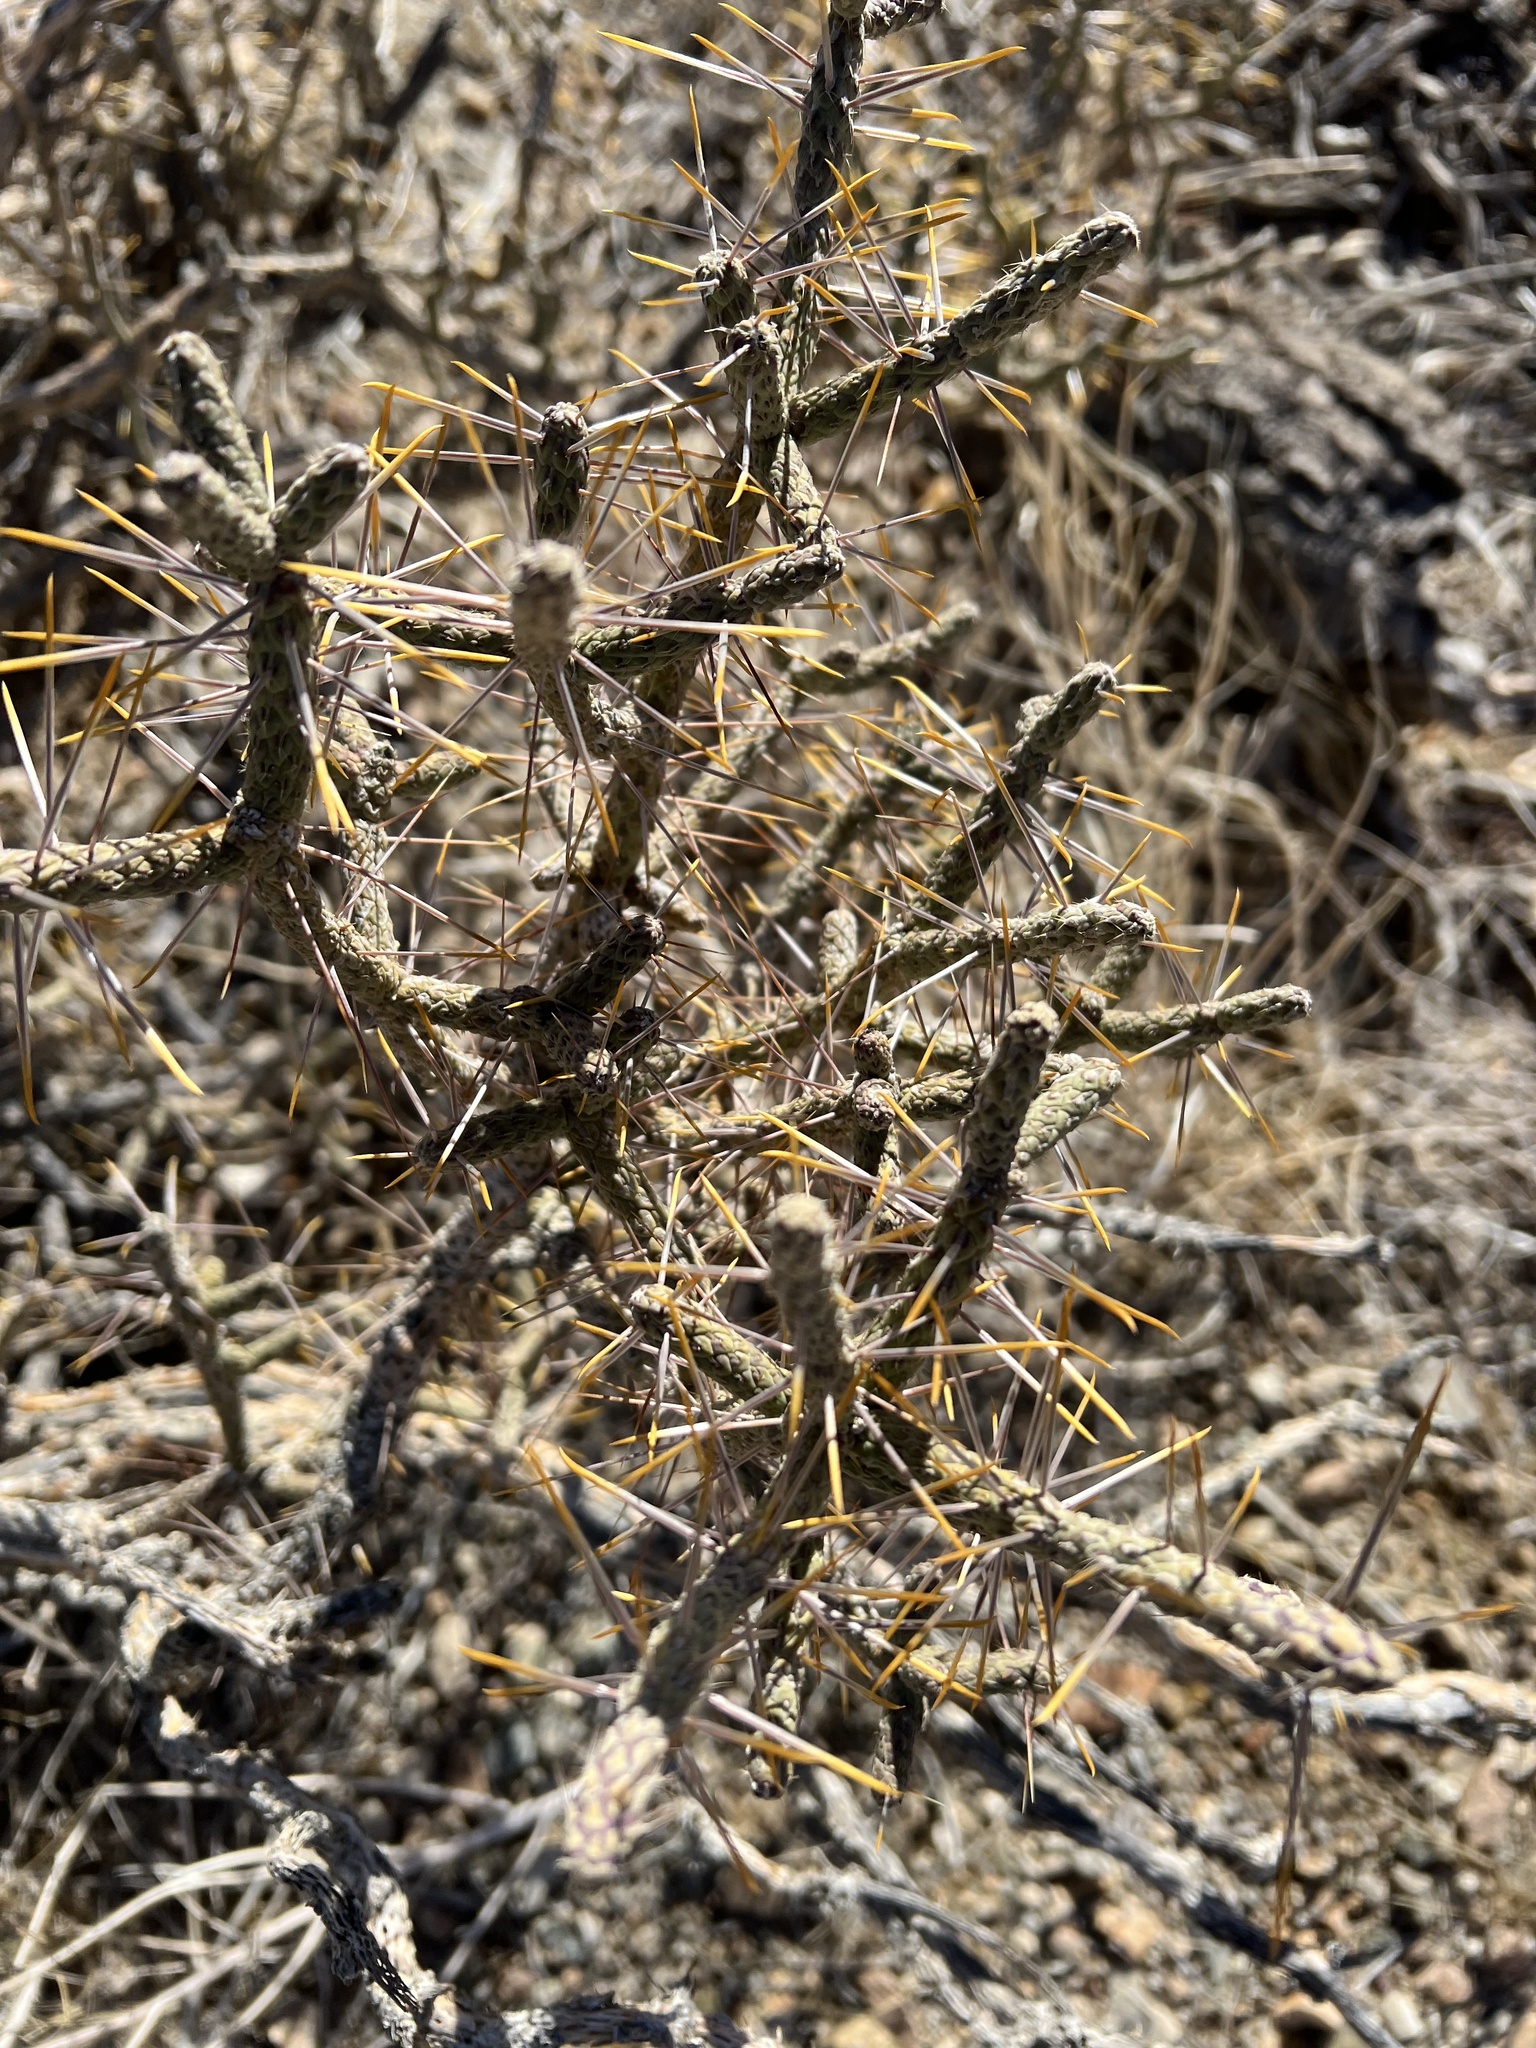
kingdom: Plantae
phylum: Tracheophyta
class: Magnoliopsida
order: Caryophyllales
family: Cactaceae
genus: Cylindropuntia
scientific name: Cylindropuntia ramosissima
